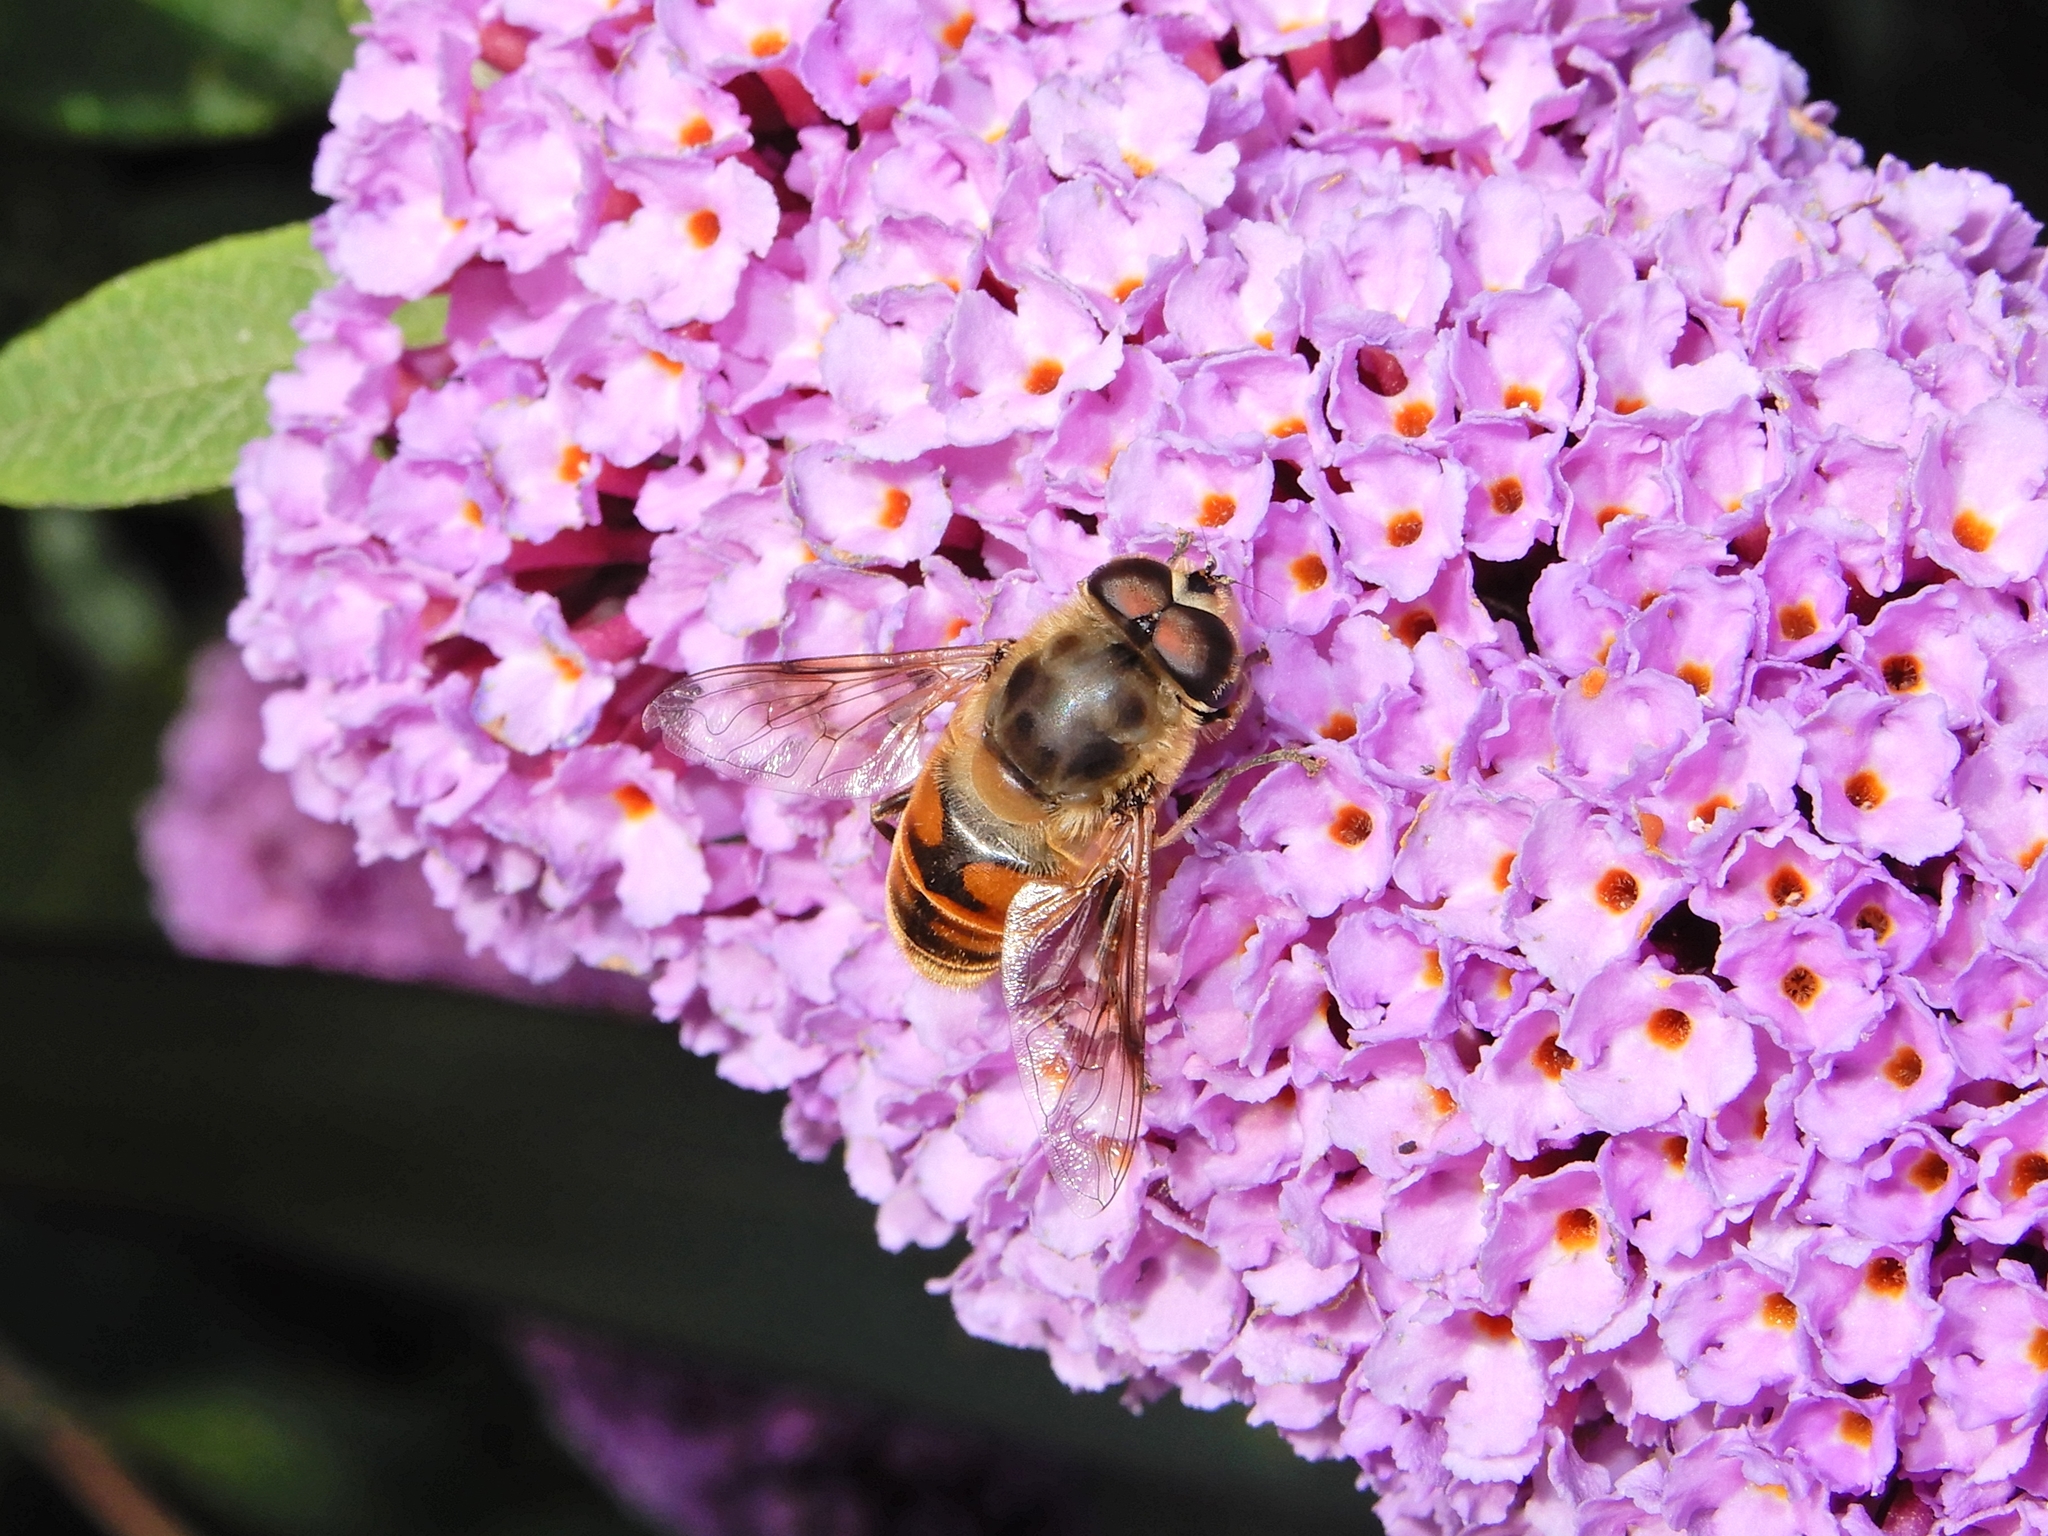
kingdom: Animalia
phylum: Arthropoda
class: Insecta
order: Diptera
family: Syrphidae
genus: Eristalis
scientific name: Eristalis tenax
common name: Drone fly
